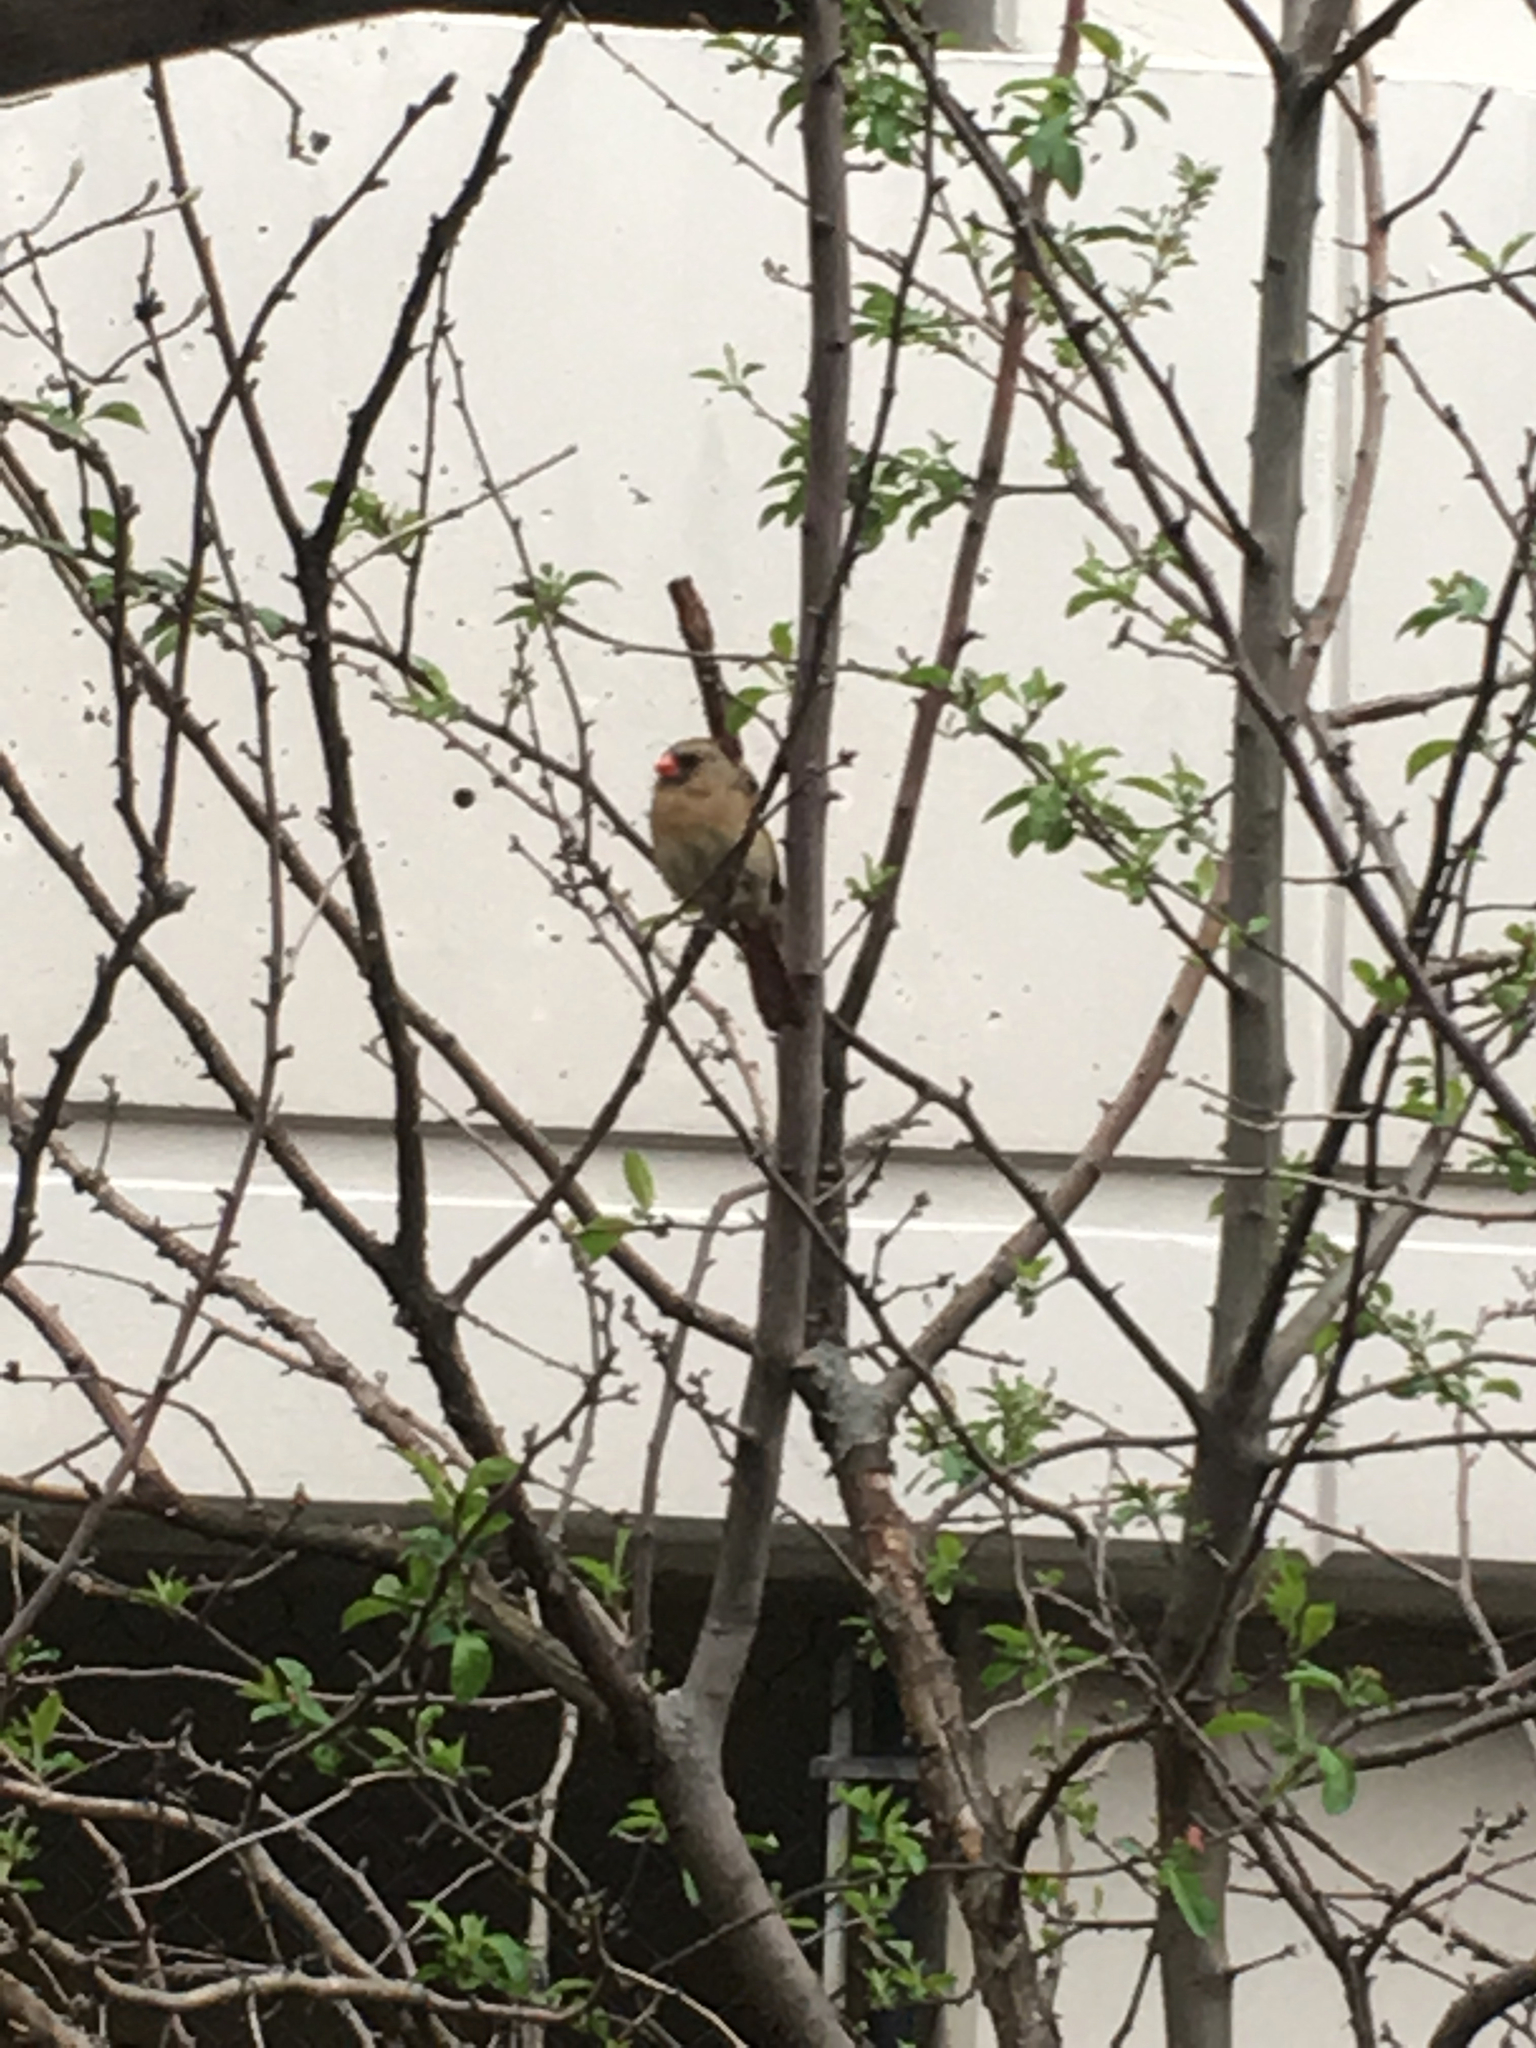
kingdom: Animalia
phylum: Chordata
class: Aves
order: Passeriformes
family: Cardinalidae
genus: Cardinalis
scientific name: Cardinalis cardinalis
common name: Northern cardinal
